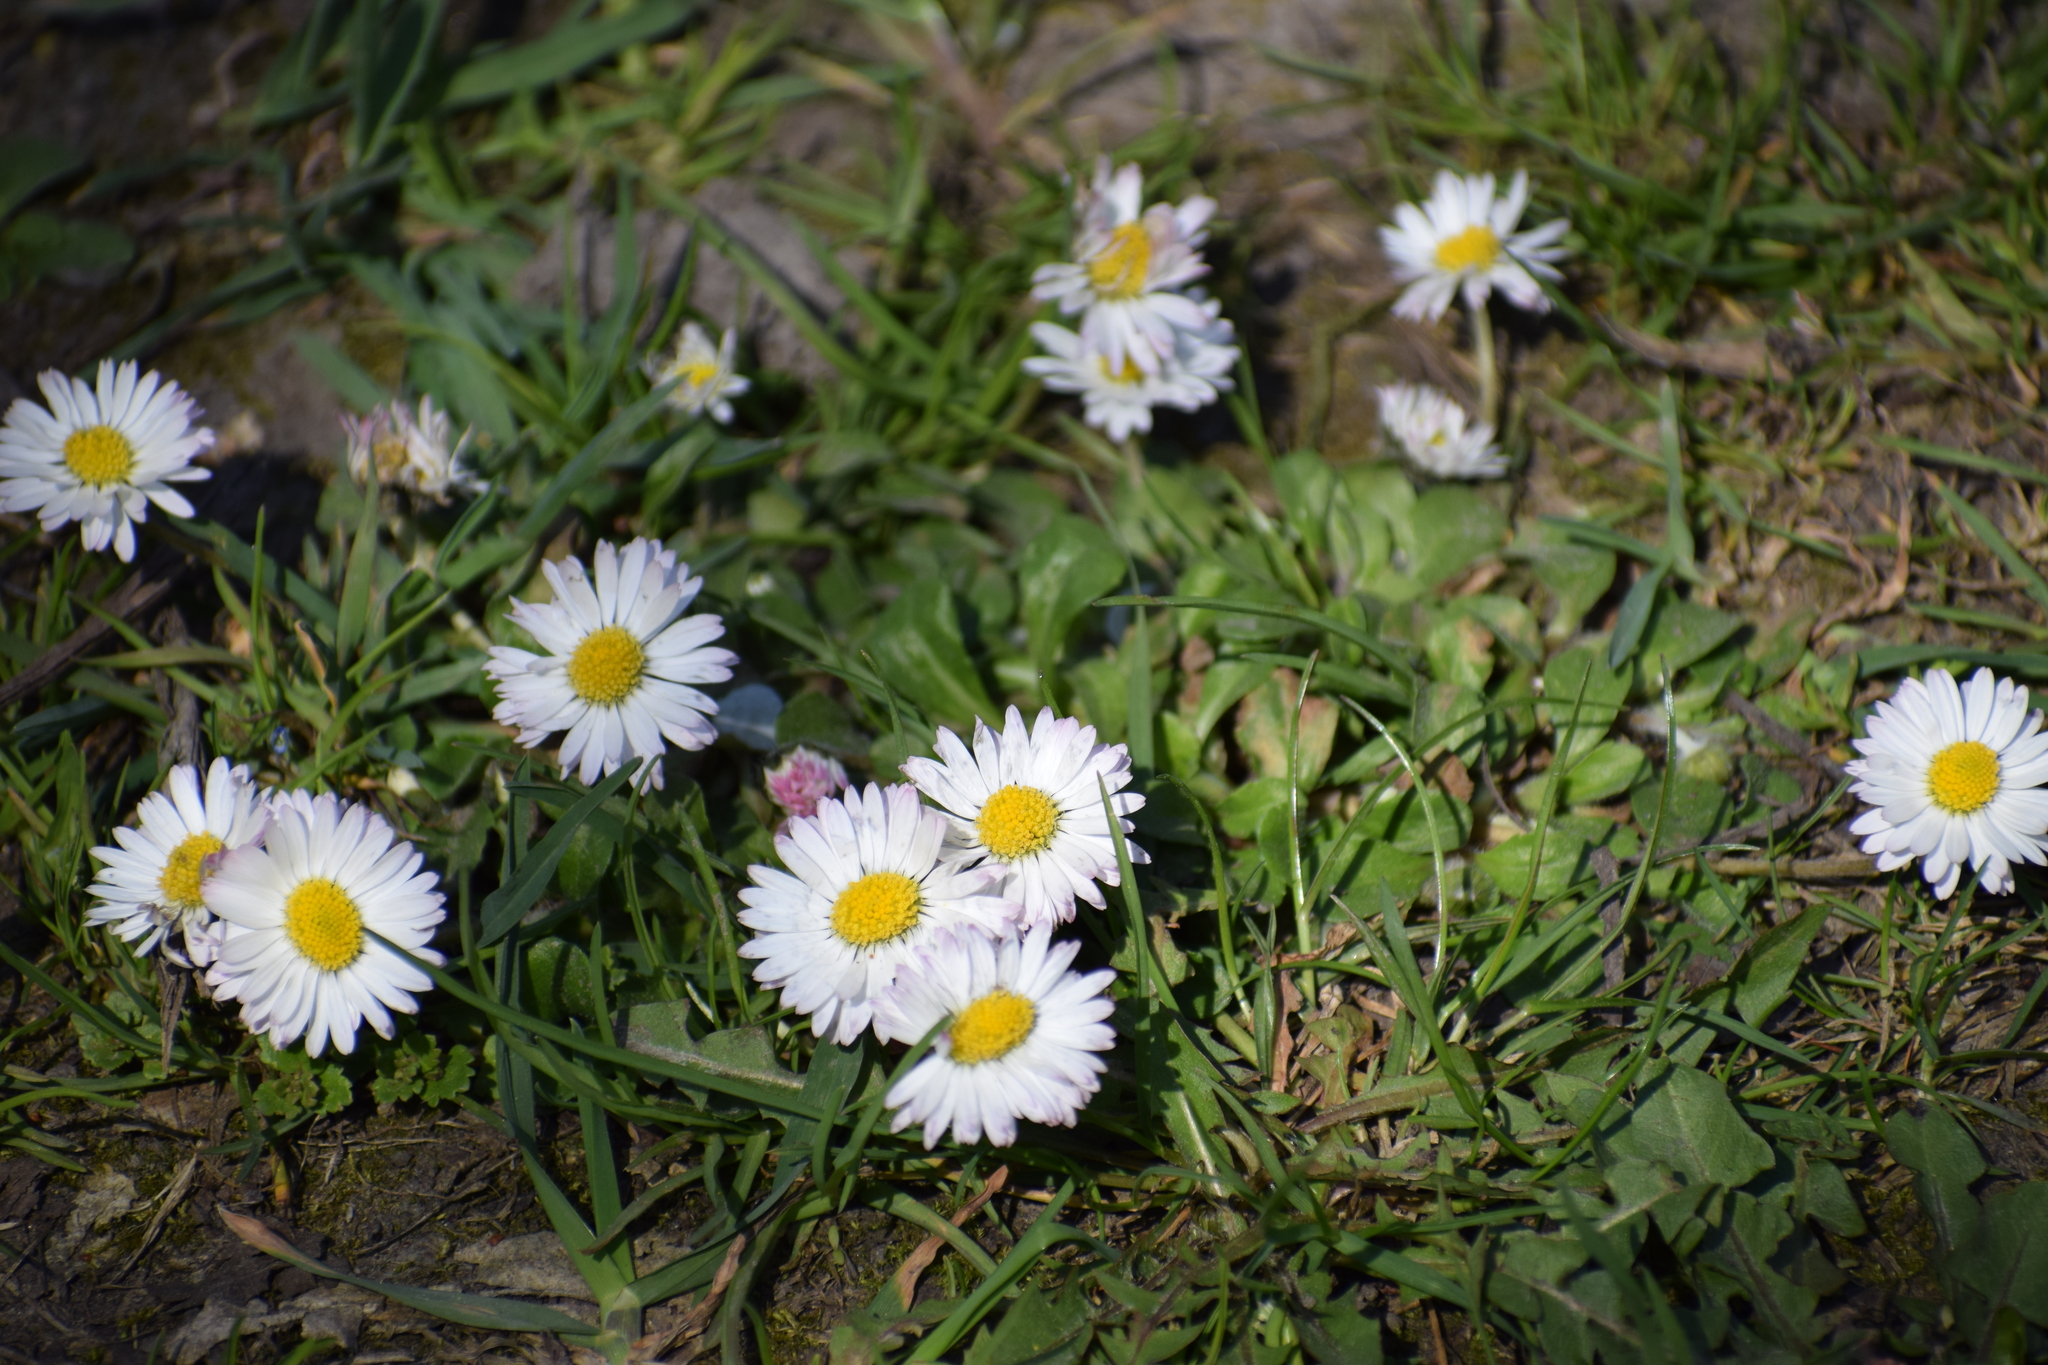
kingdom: Plantae
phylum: Tracheophyta
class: Magnoliopsida
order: Asterales
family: Asteraceae
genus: Bellis
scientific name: Bellis perennis
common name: Lawndaisy
